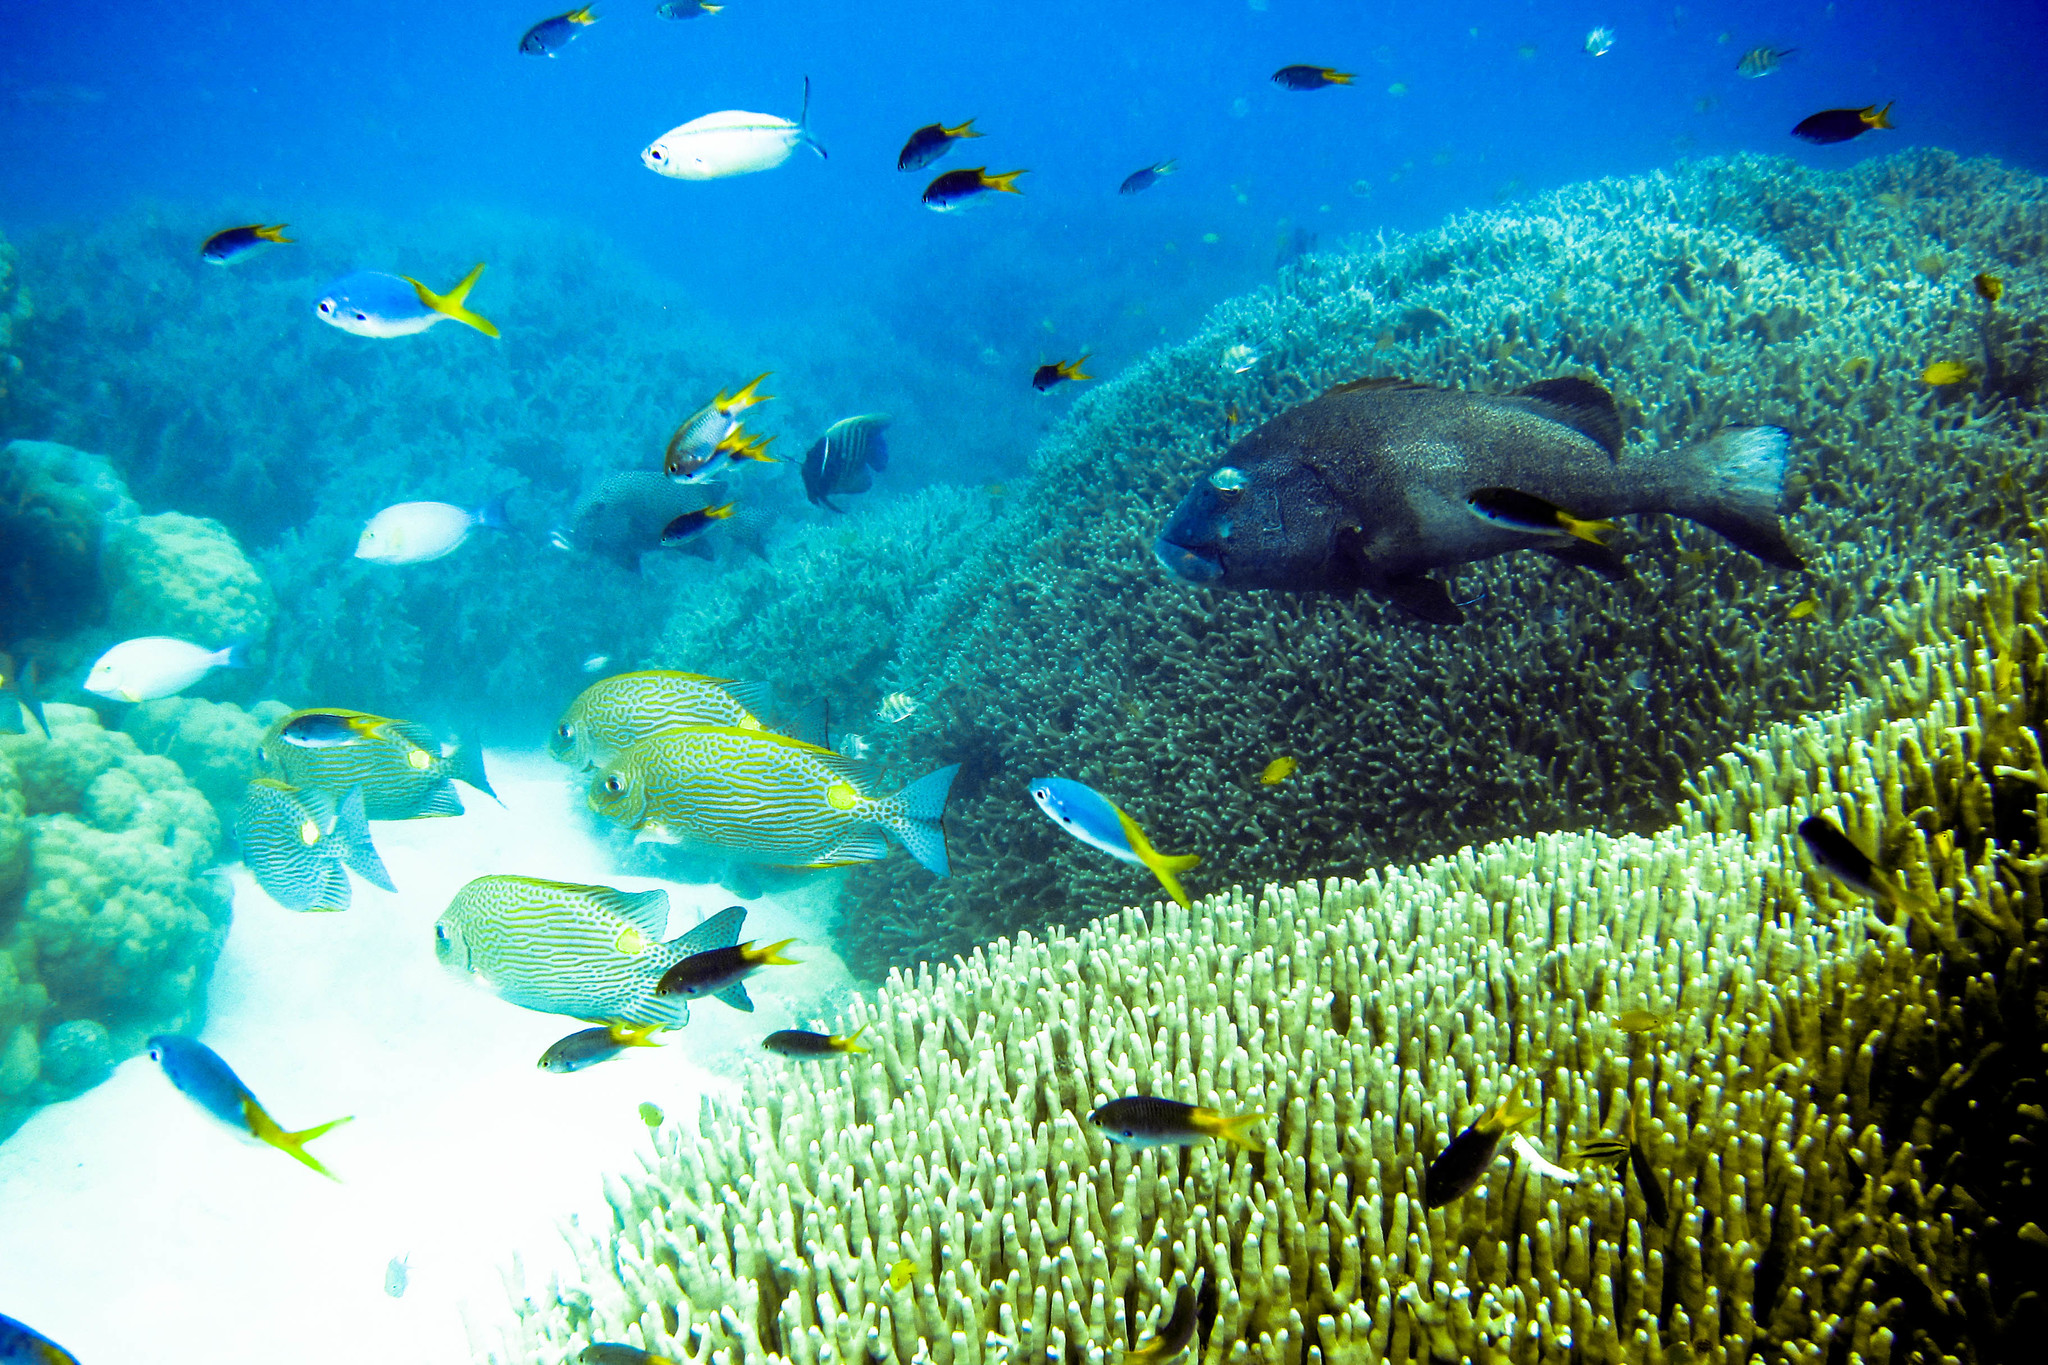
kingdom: Animalia
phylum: Chordata
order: Perciformes
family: Siganidae
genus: Siganus
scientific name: Siganus lineatus
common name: Lined rabbitfish
